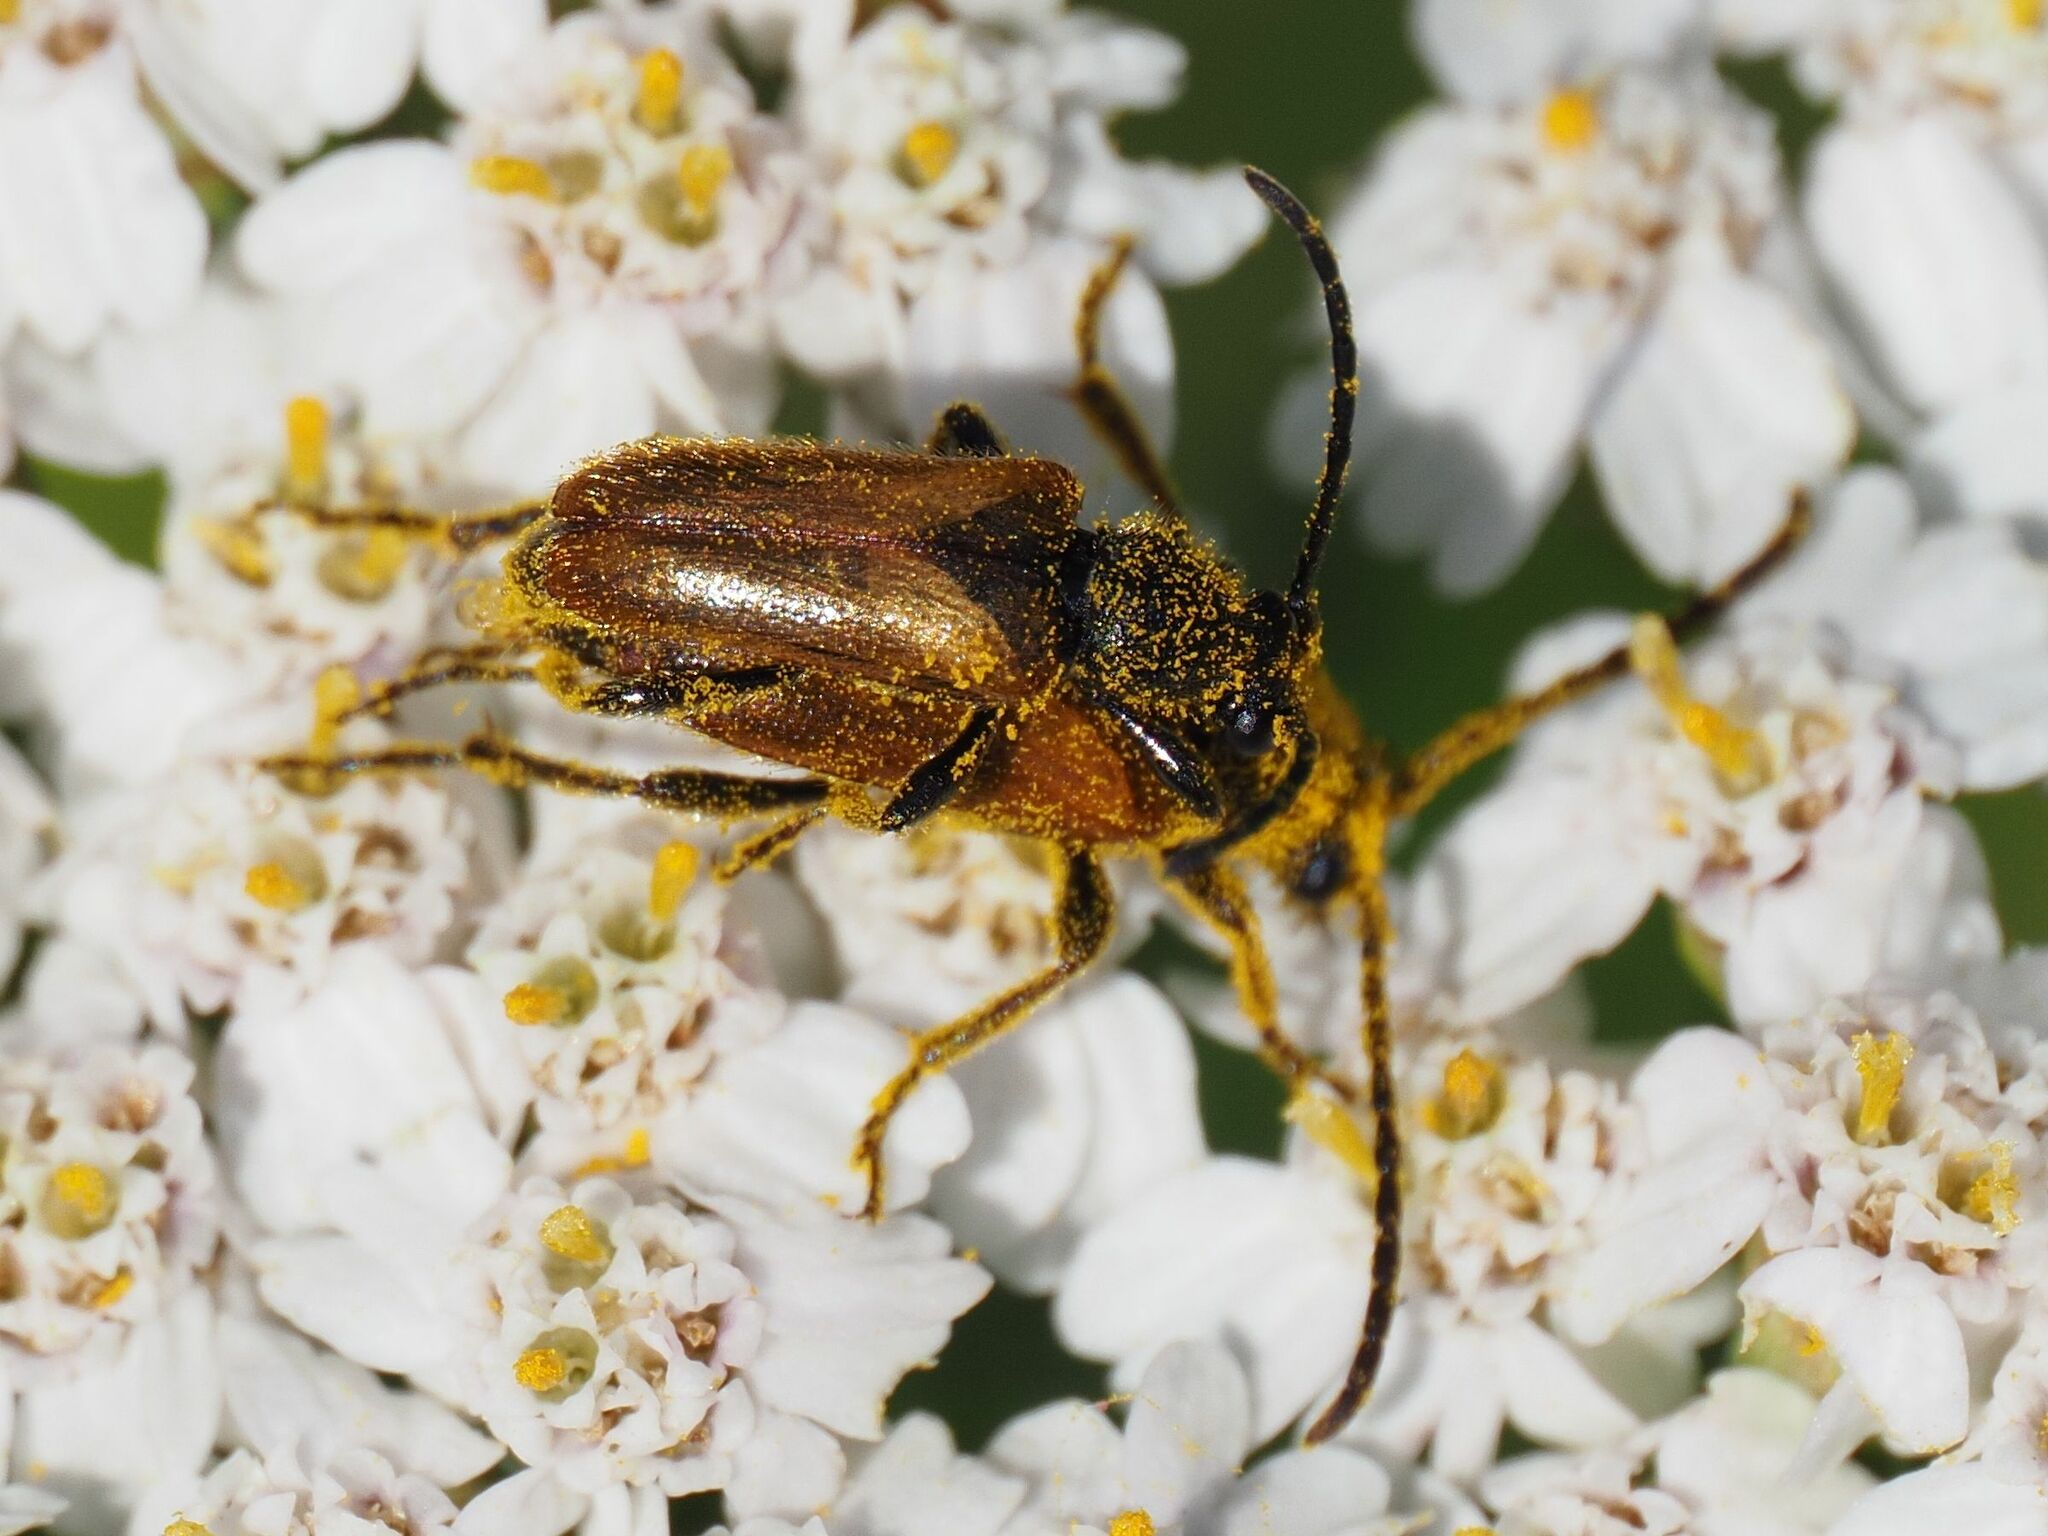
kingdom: Animalia
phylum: Arthropoda
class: Insecta
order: Coleoptera
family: Cerambycidae
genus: Pseudovadonia
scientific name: Pseudovadonia livida
